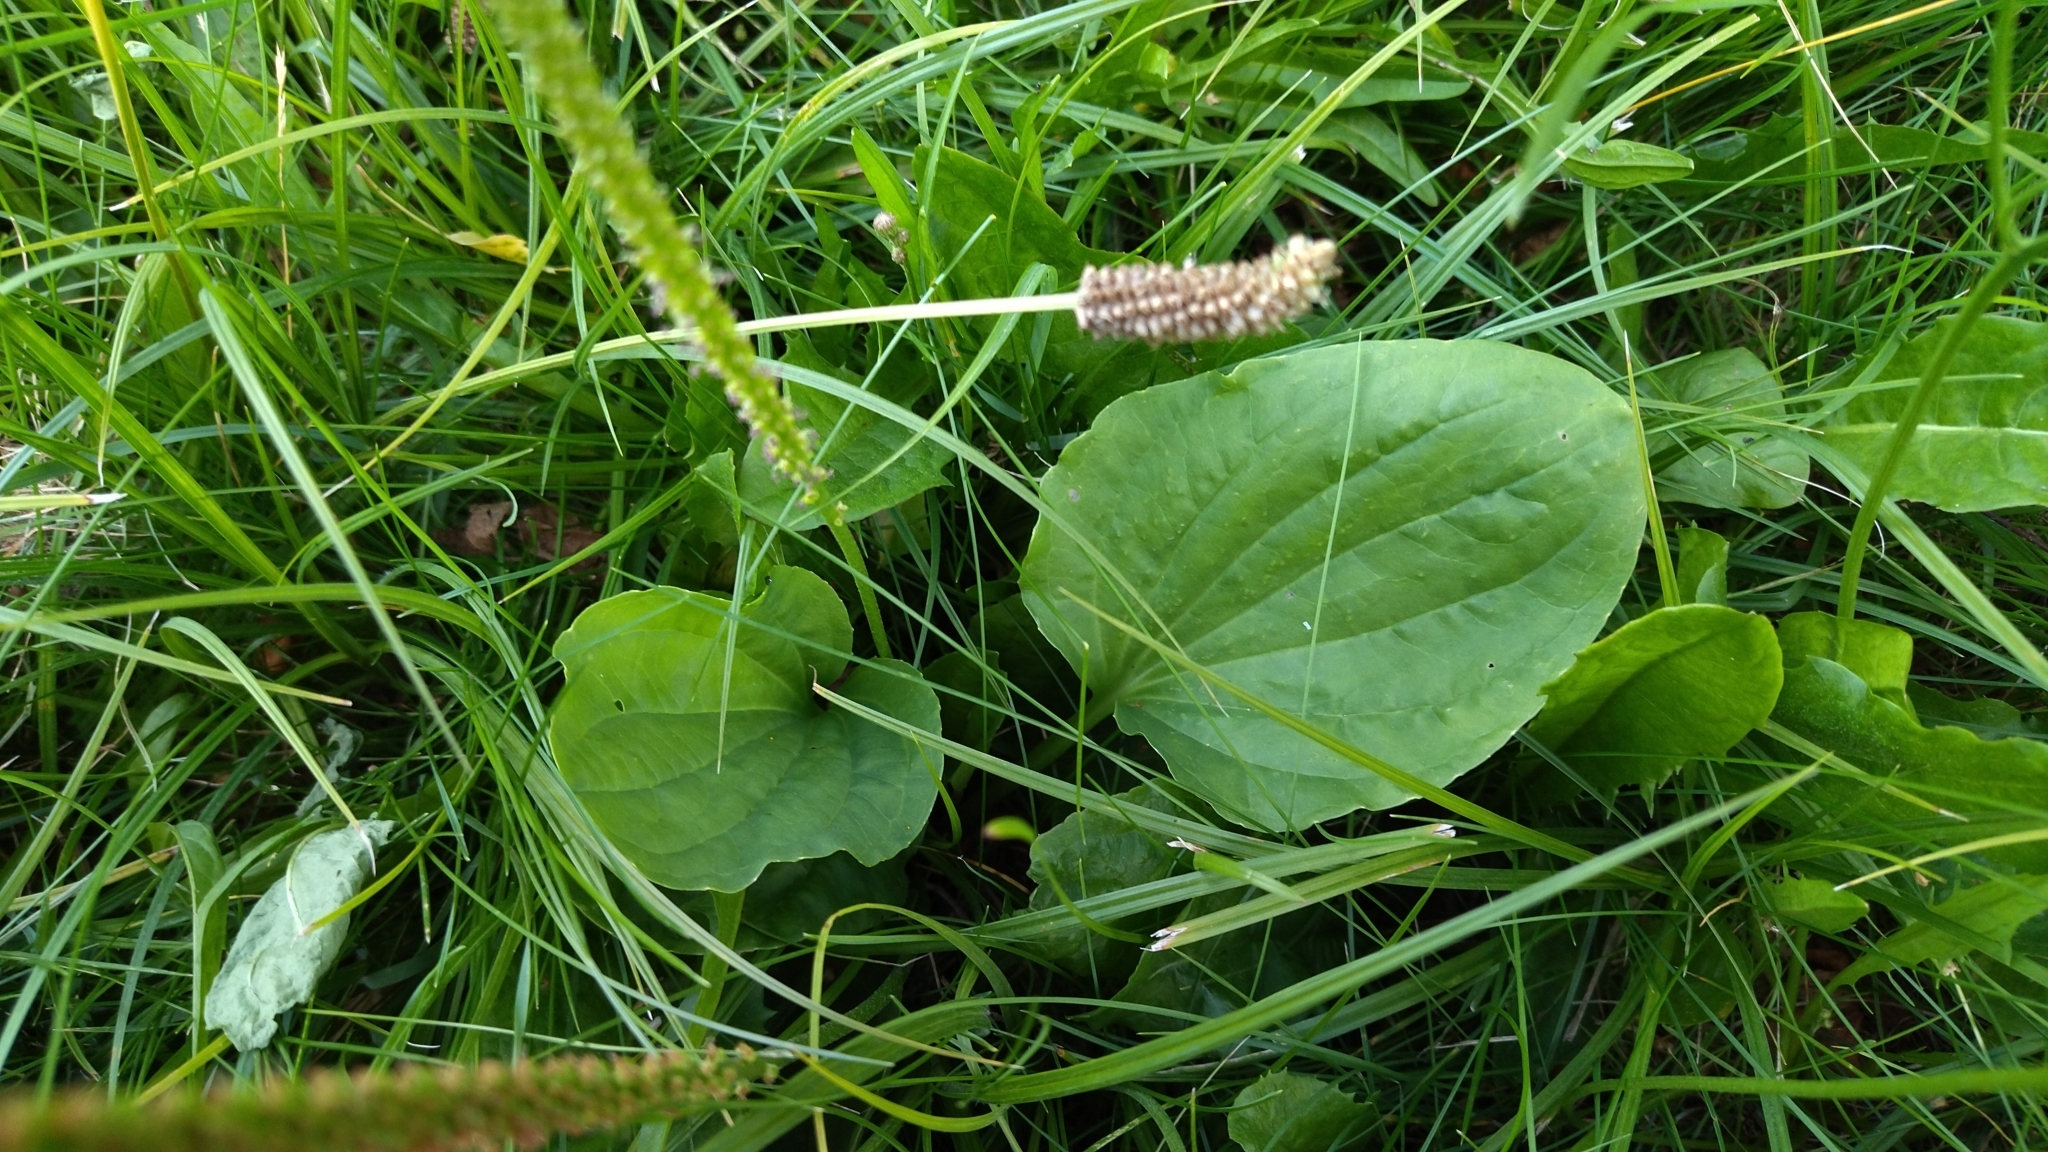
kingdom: Plantae
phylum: Tracheophyta
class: Magnoliopsida
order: Lamiales
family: Plantaginaceae
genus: Plantago
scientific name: Plantago major
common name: Common plantain
